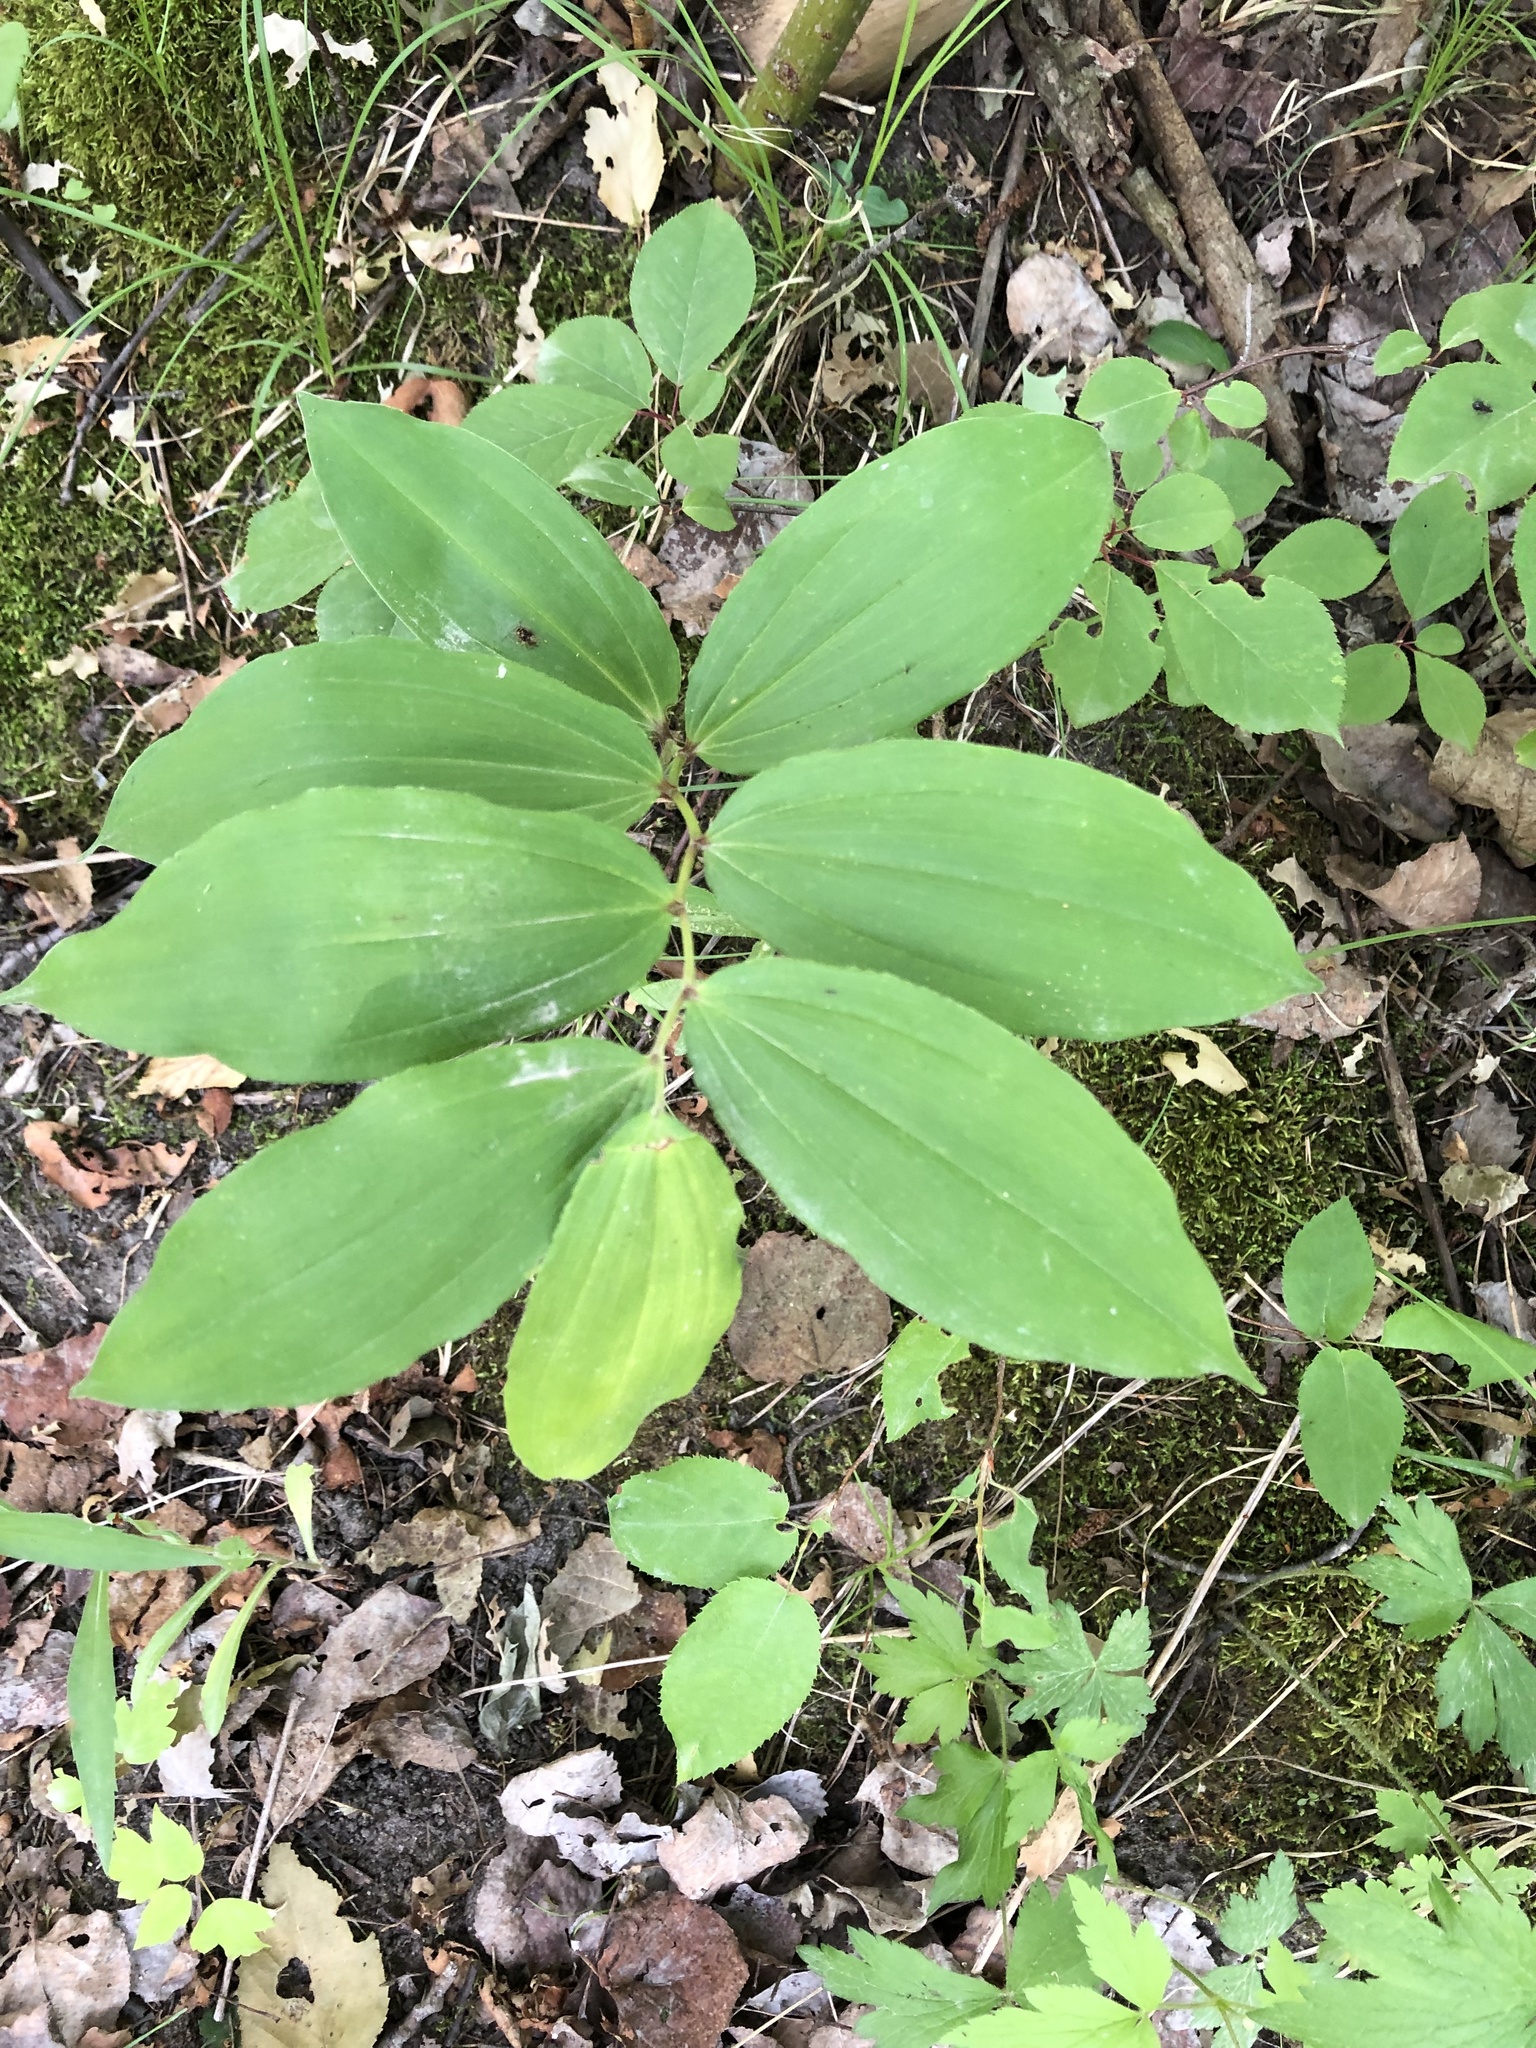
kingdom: Plantae
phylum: Tracheophyta
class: Liliopsida
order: Asparagales
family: Asparagaceae
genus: Maianthemum
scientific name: Maianthemum racemosum
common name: False spikenard
